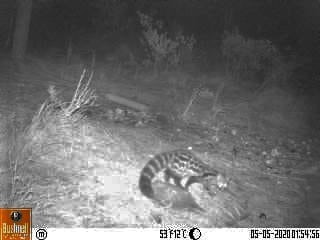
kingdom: Animalia
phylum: Chordata
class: Mammalia
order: Carnivora
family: Viverridae
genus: Genetta
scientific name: Genetta tigrina
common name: Cape genet
